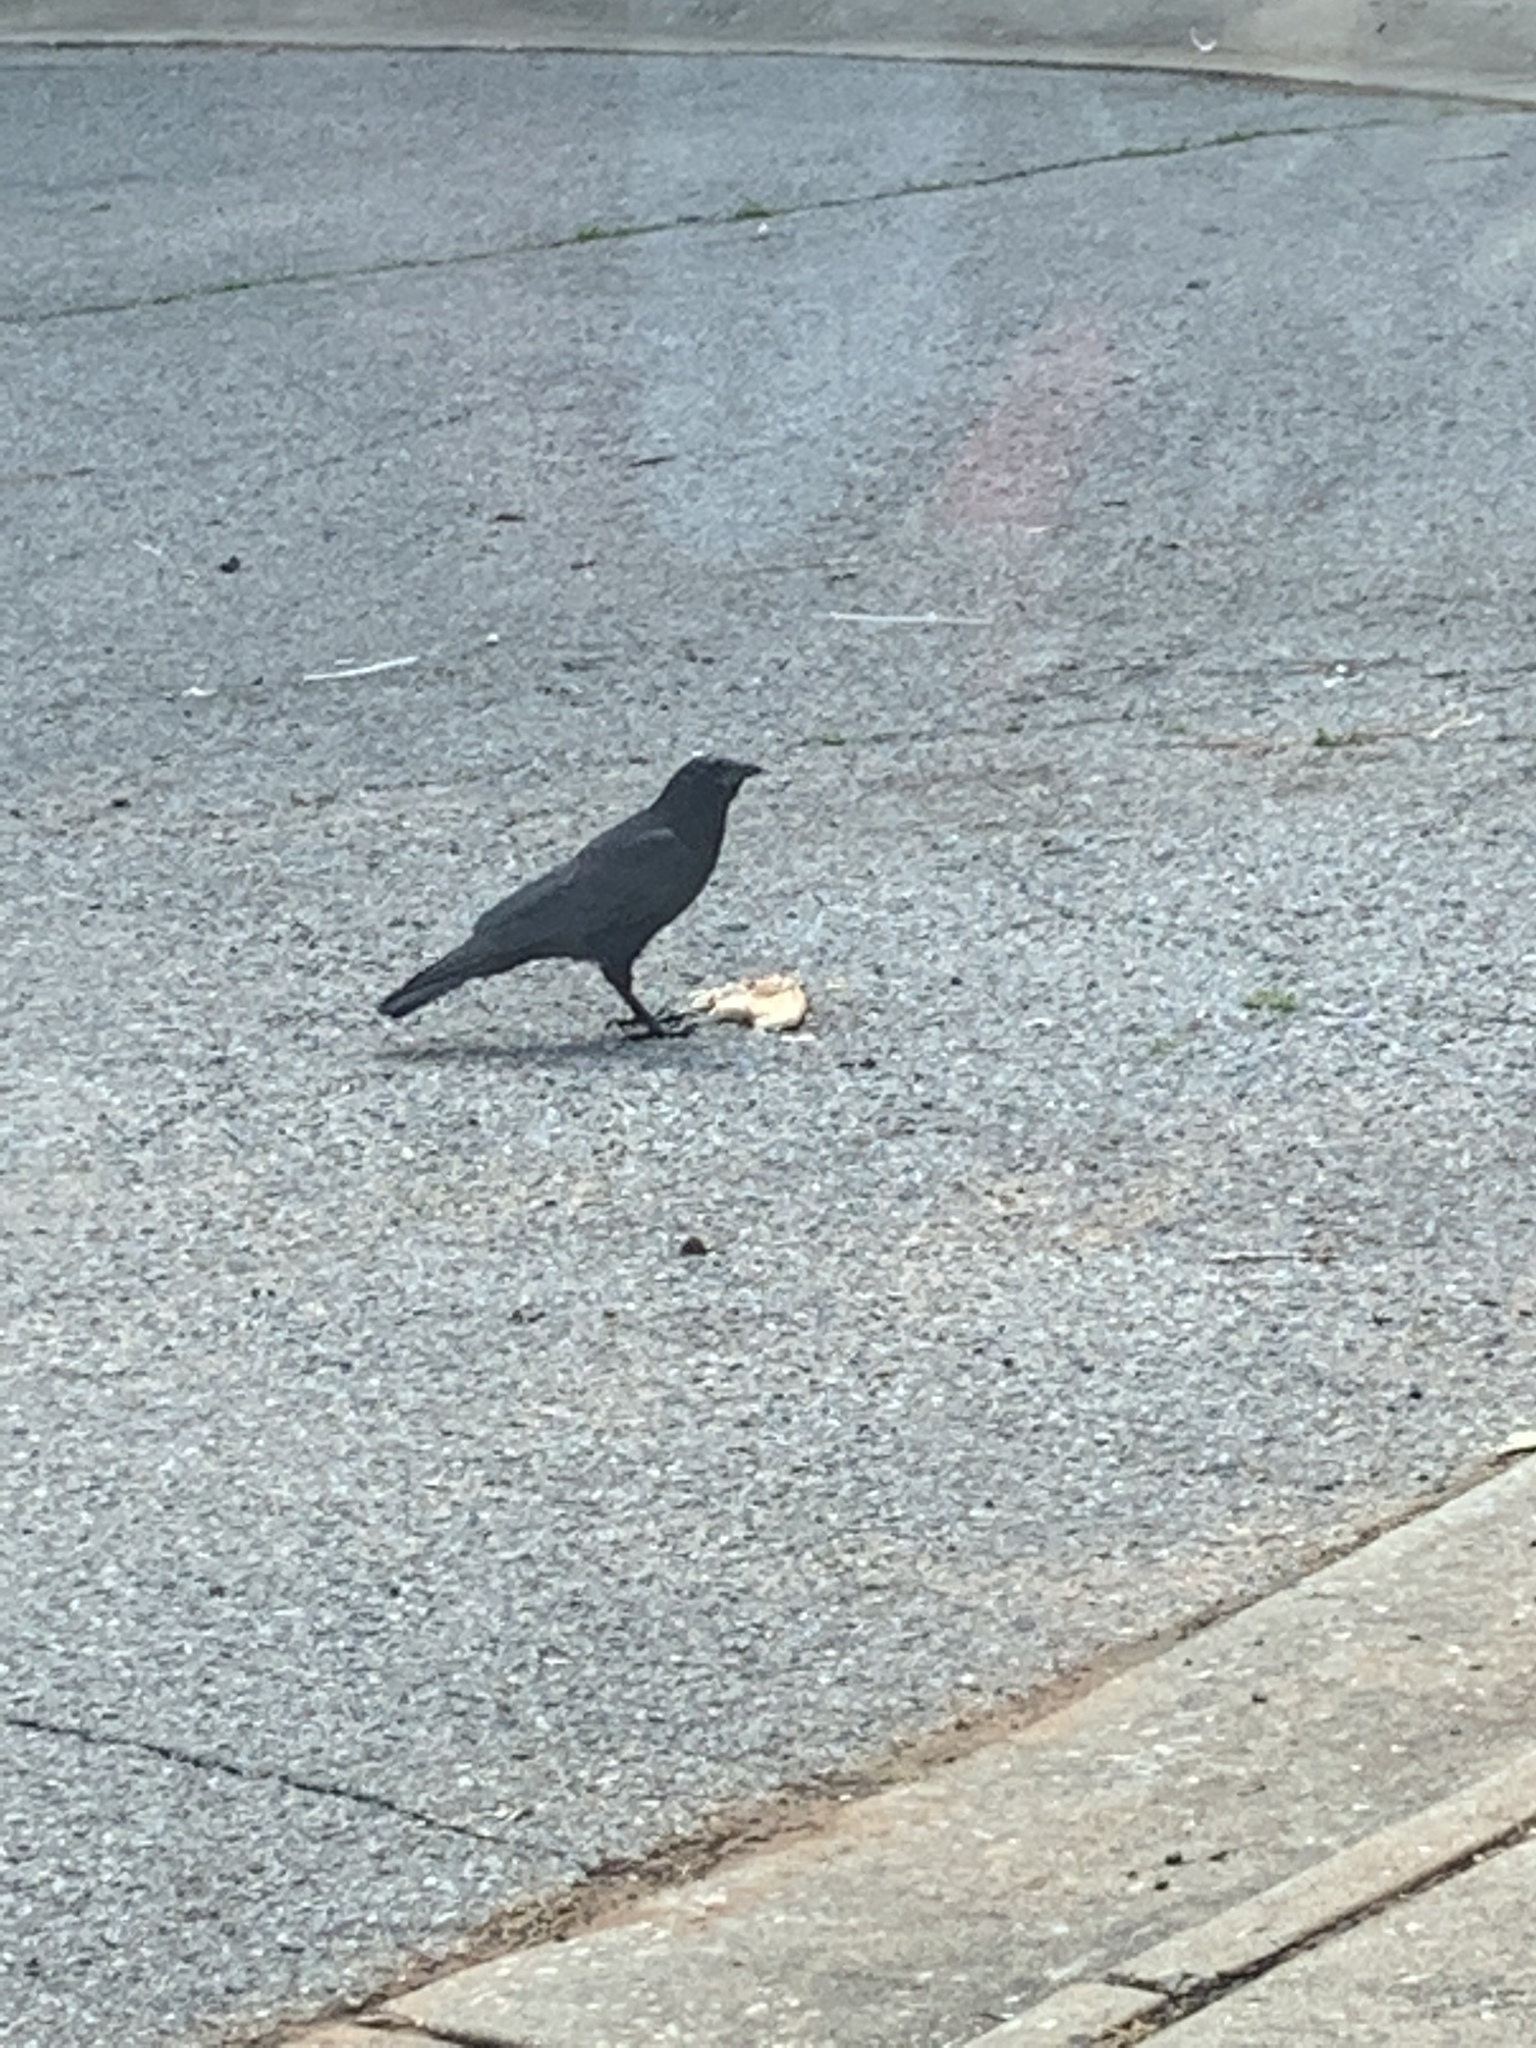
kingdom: Animalia
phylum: Chordata
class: Aves
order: Passeriformes
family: Corvidae
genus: Corvus
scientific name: Corvus brachyrhynchos
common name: American crow
